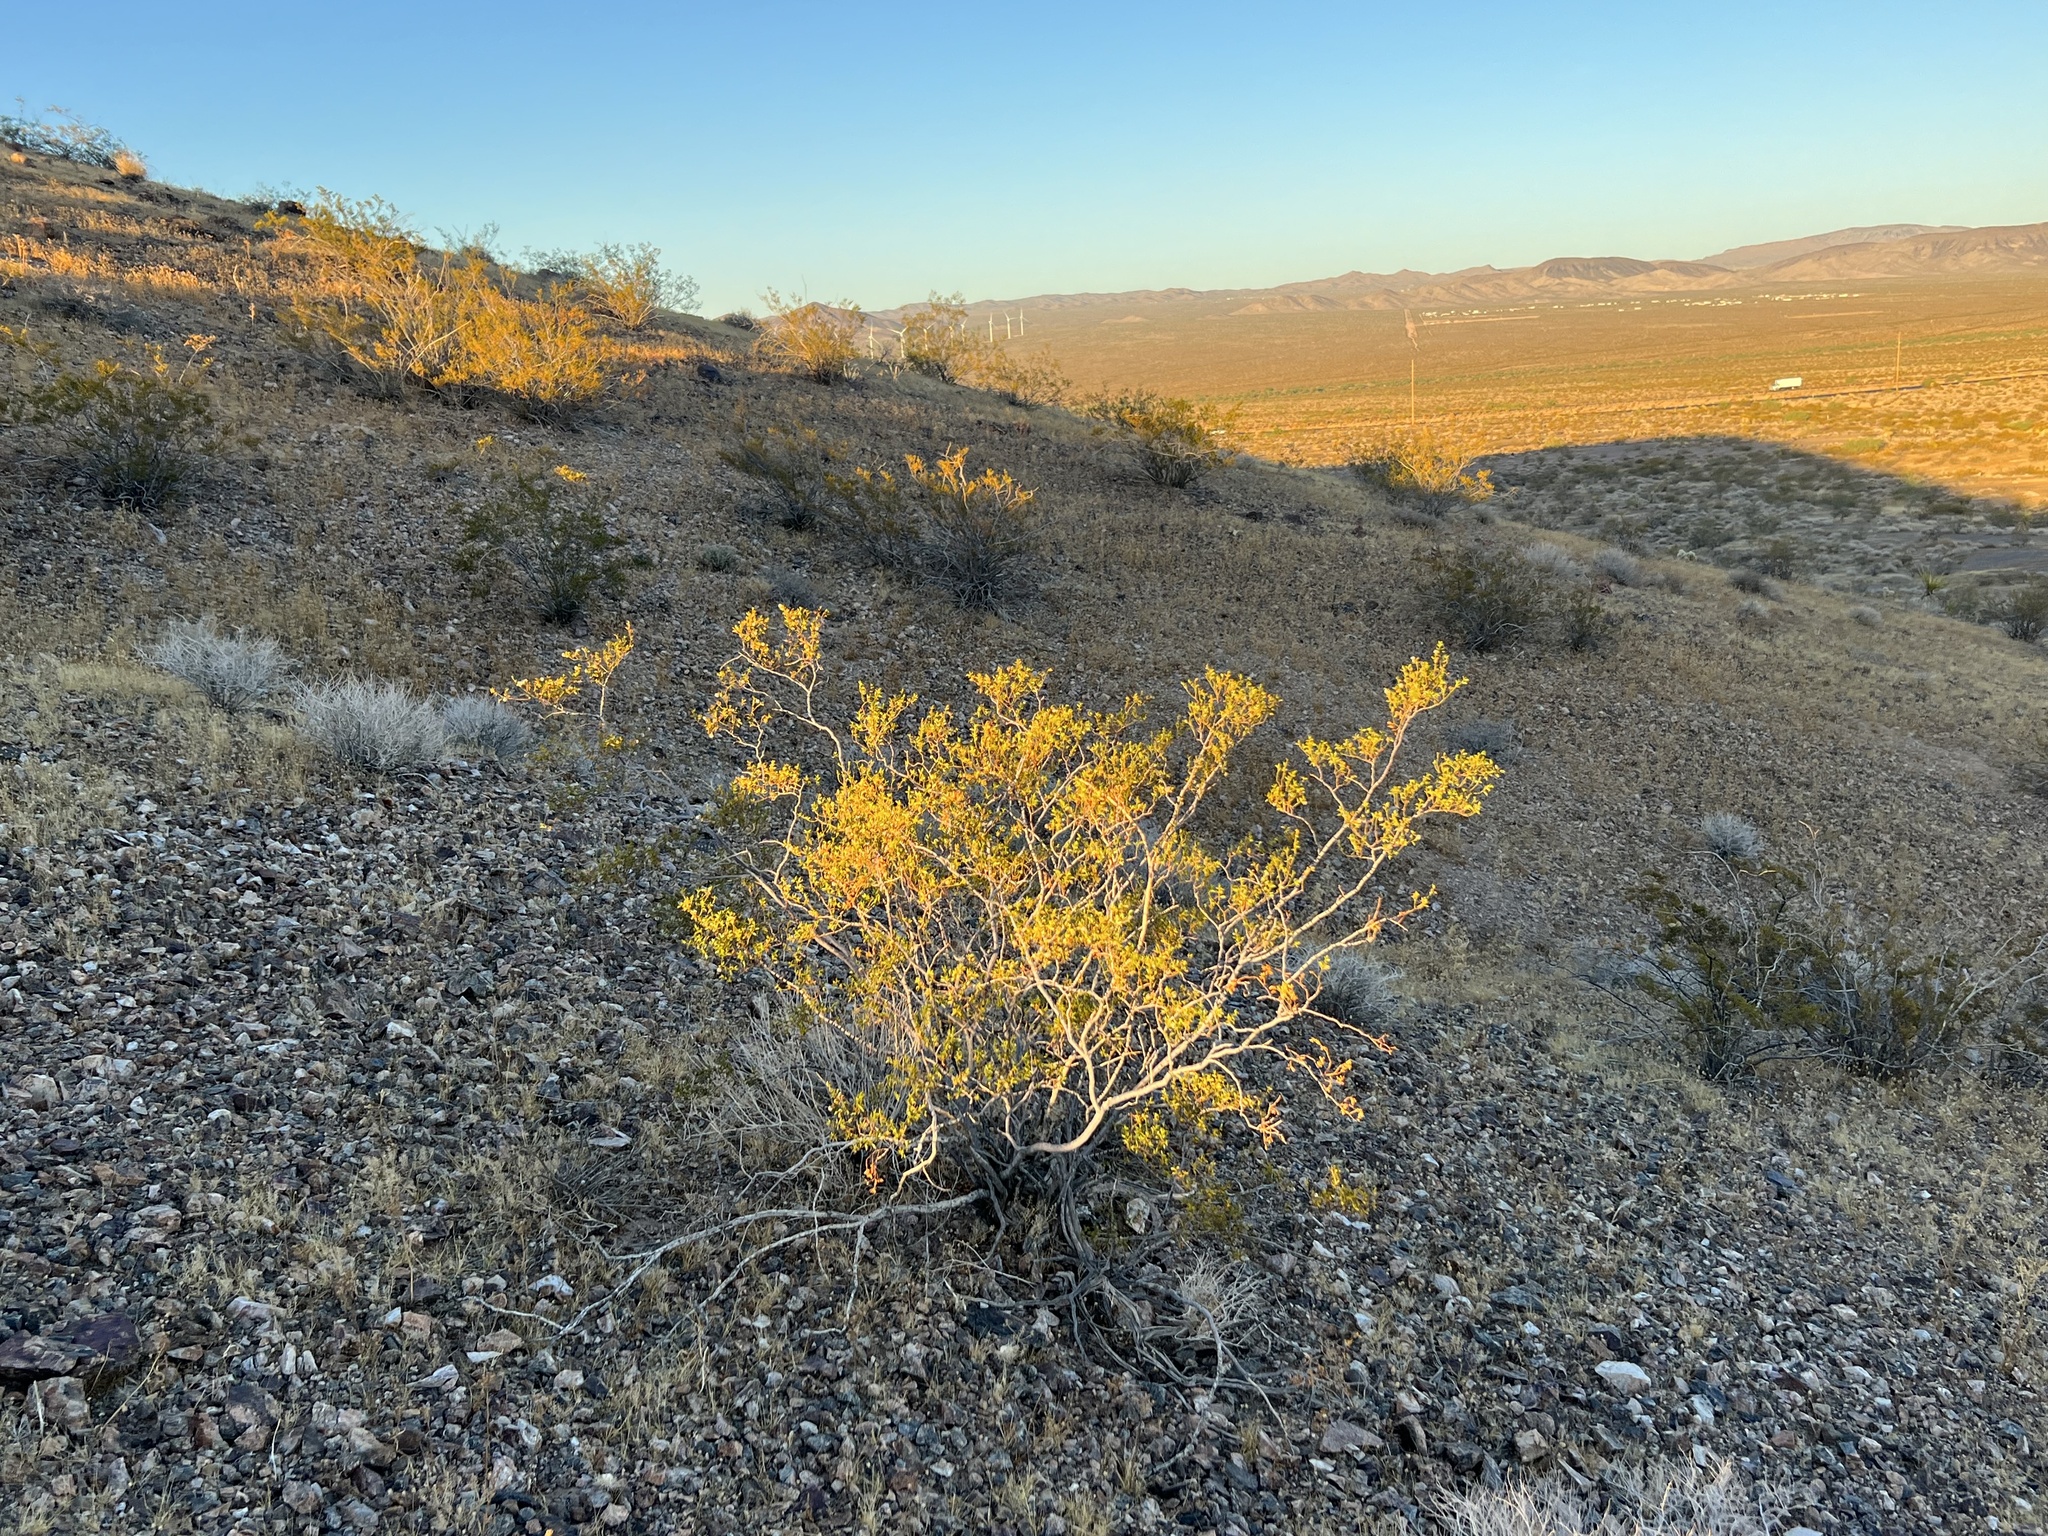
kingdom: Plantae
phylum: Tracheophyta
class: Magnoliopsida
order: Zygophyllales
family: Zygophyllaceae
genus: Larrea
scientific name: Larrea tridentata
